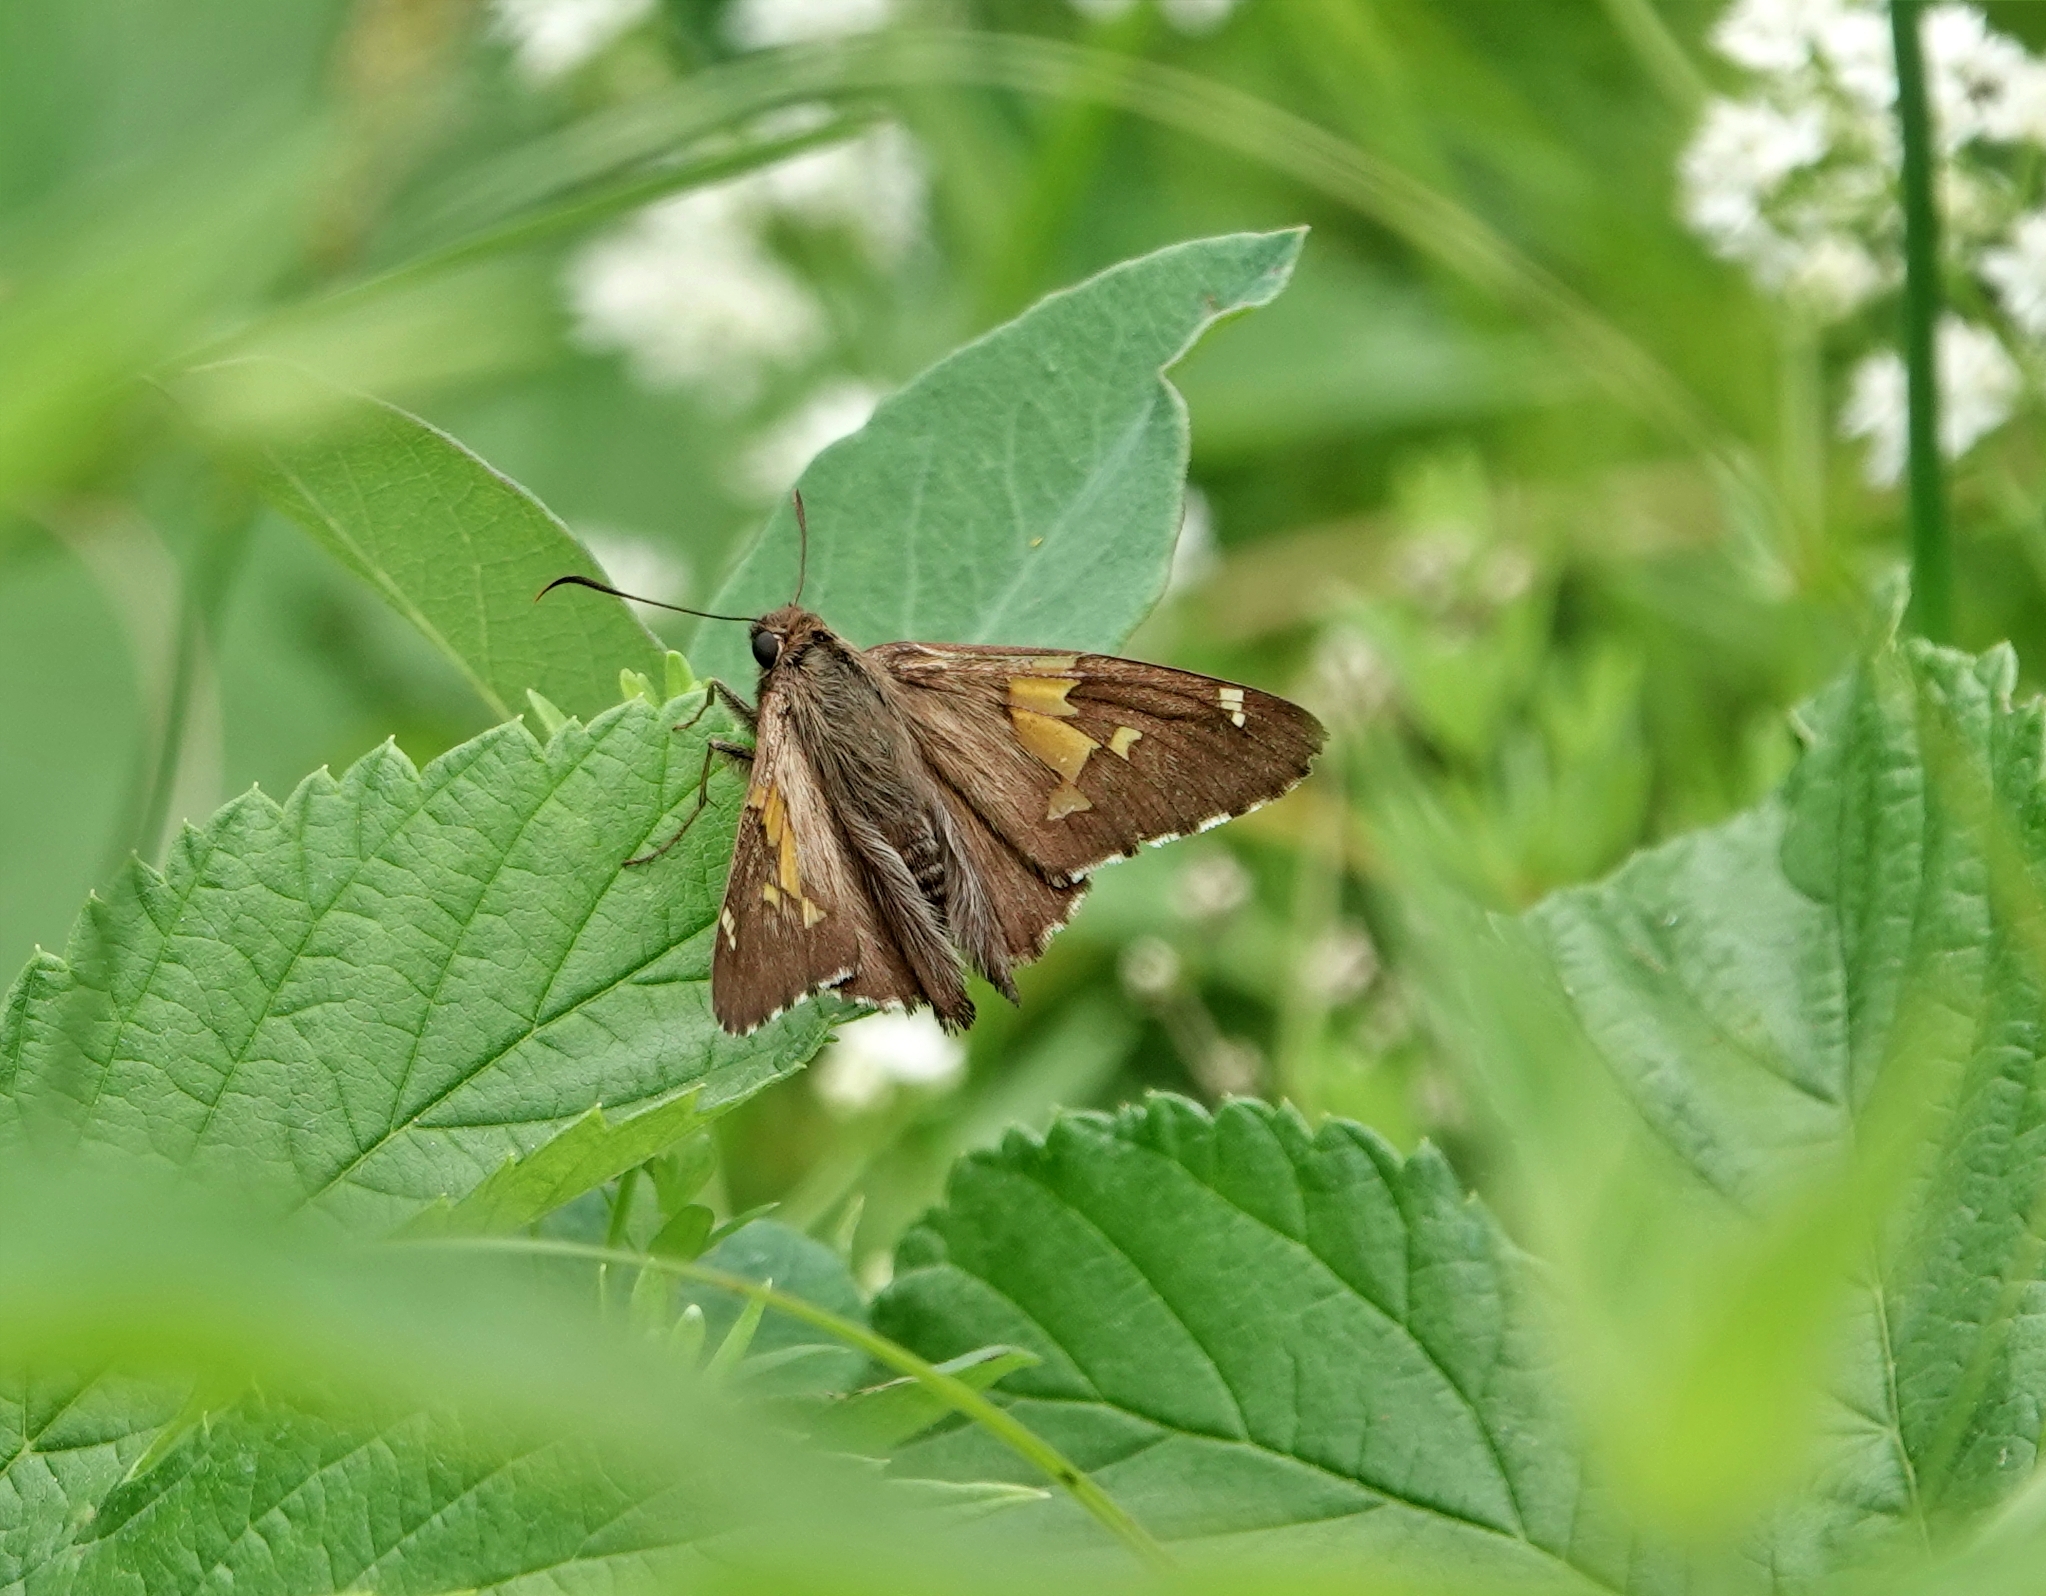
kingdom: Animalia
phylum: Arthropoda
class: Insecta
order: Lepidoptera
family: Hesperiidae
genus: Epargyreus
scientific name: Epargyreus clarus
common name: Silver-spotted skipper
